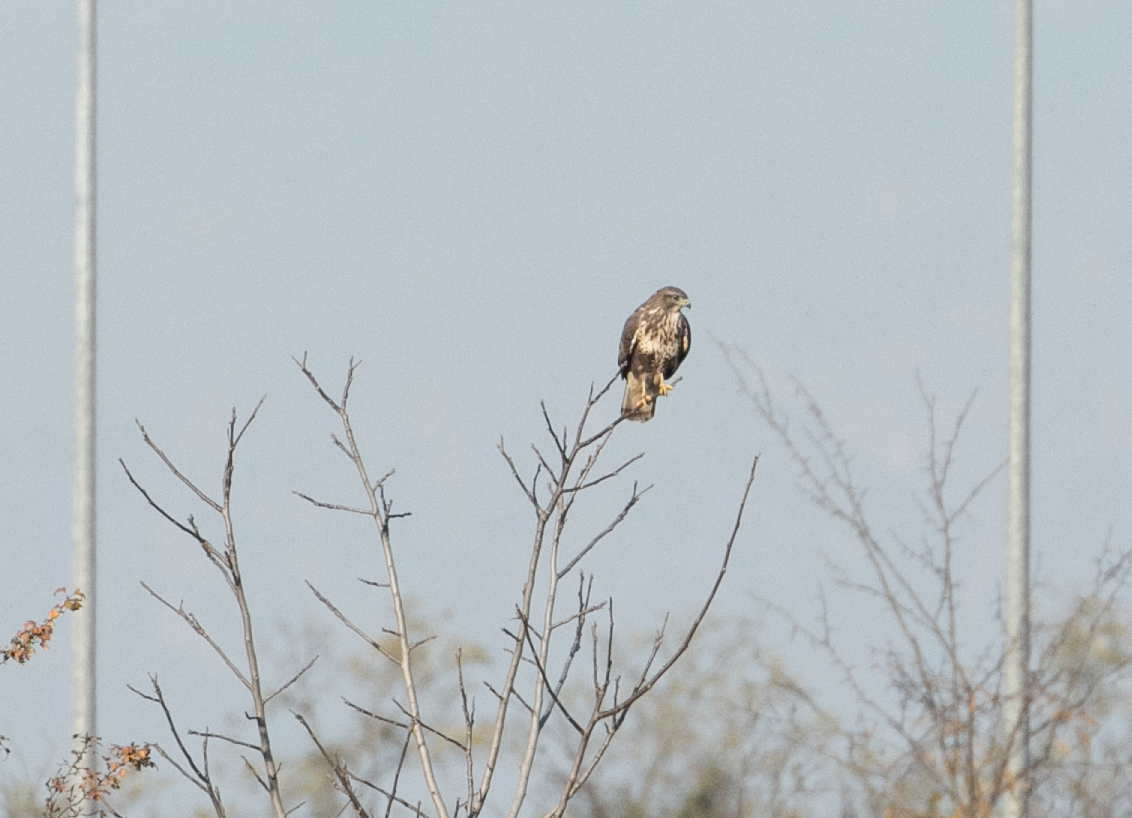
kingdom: Animalia
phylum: Chordata
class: Aves
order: Accipitriformes
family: Accipitridae
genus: Buteo
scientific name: Buteo buteo
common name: Common buzzard
